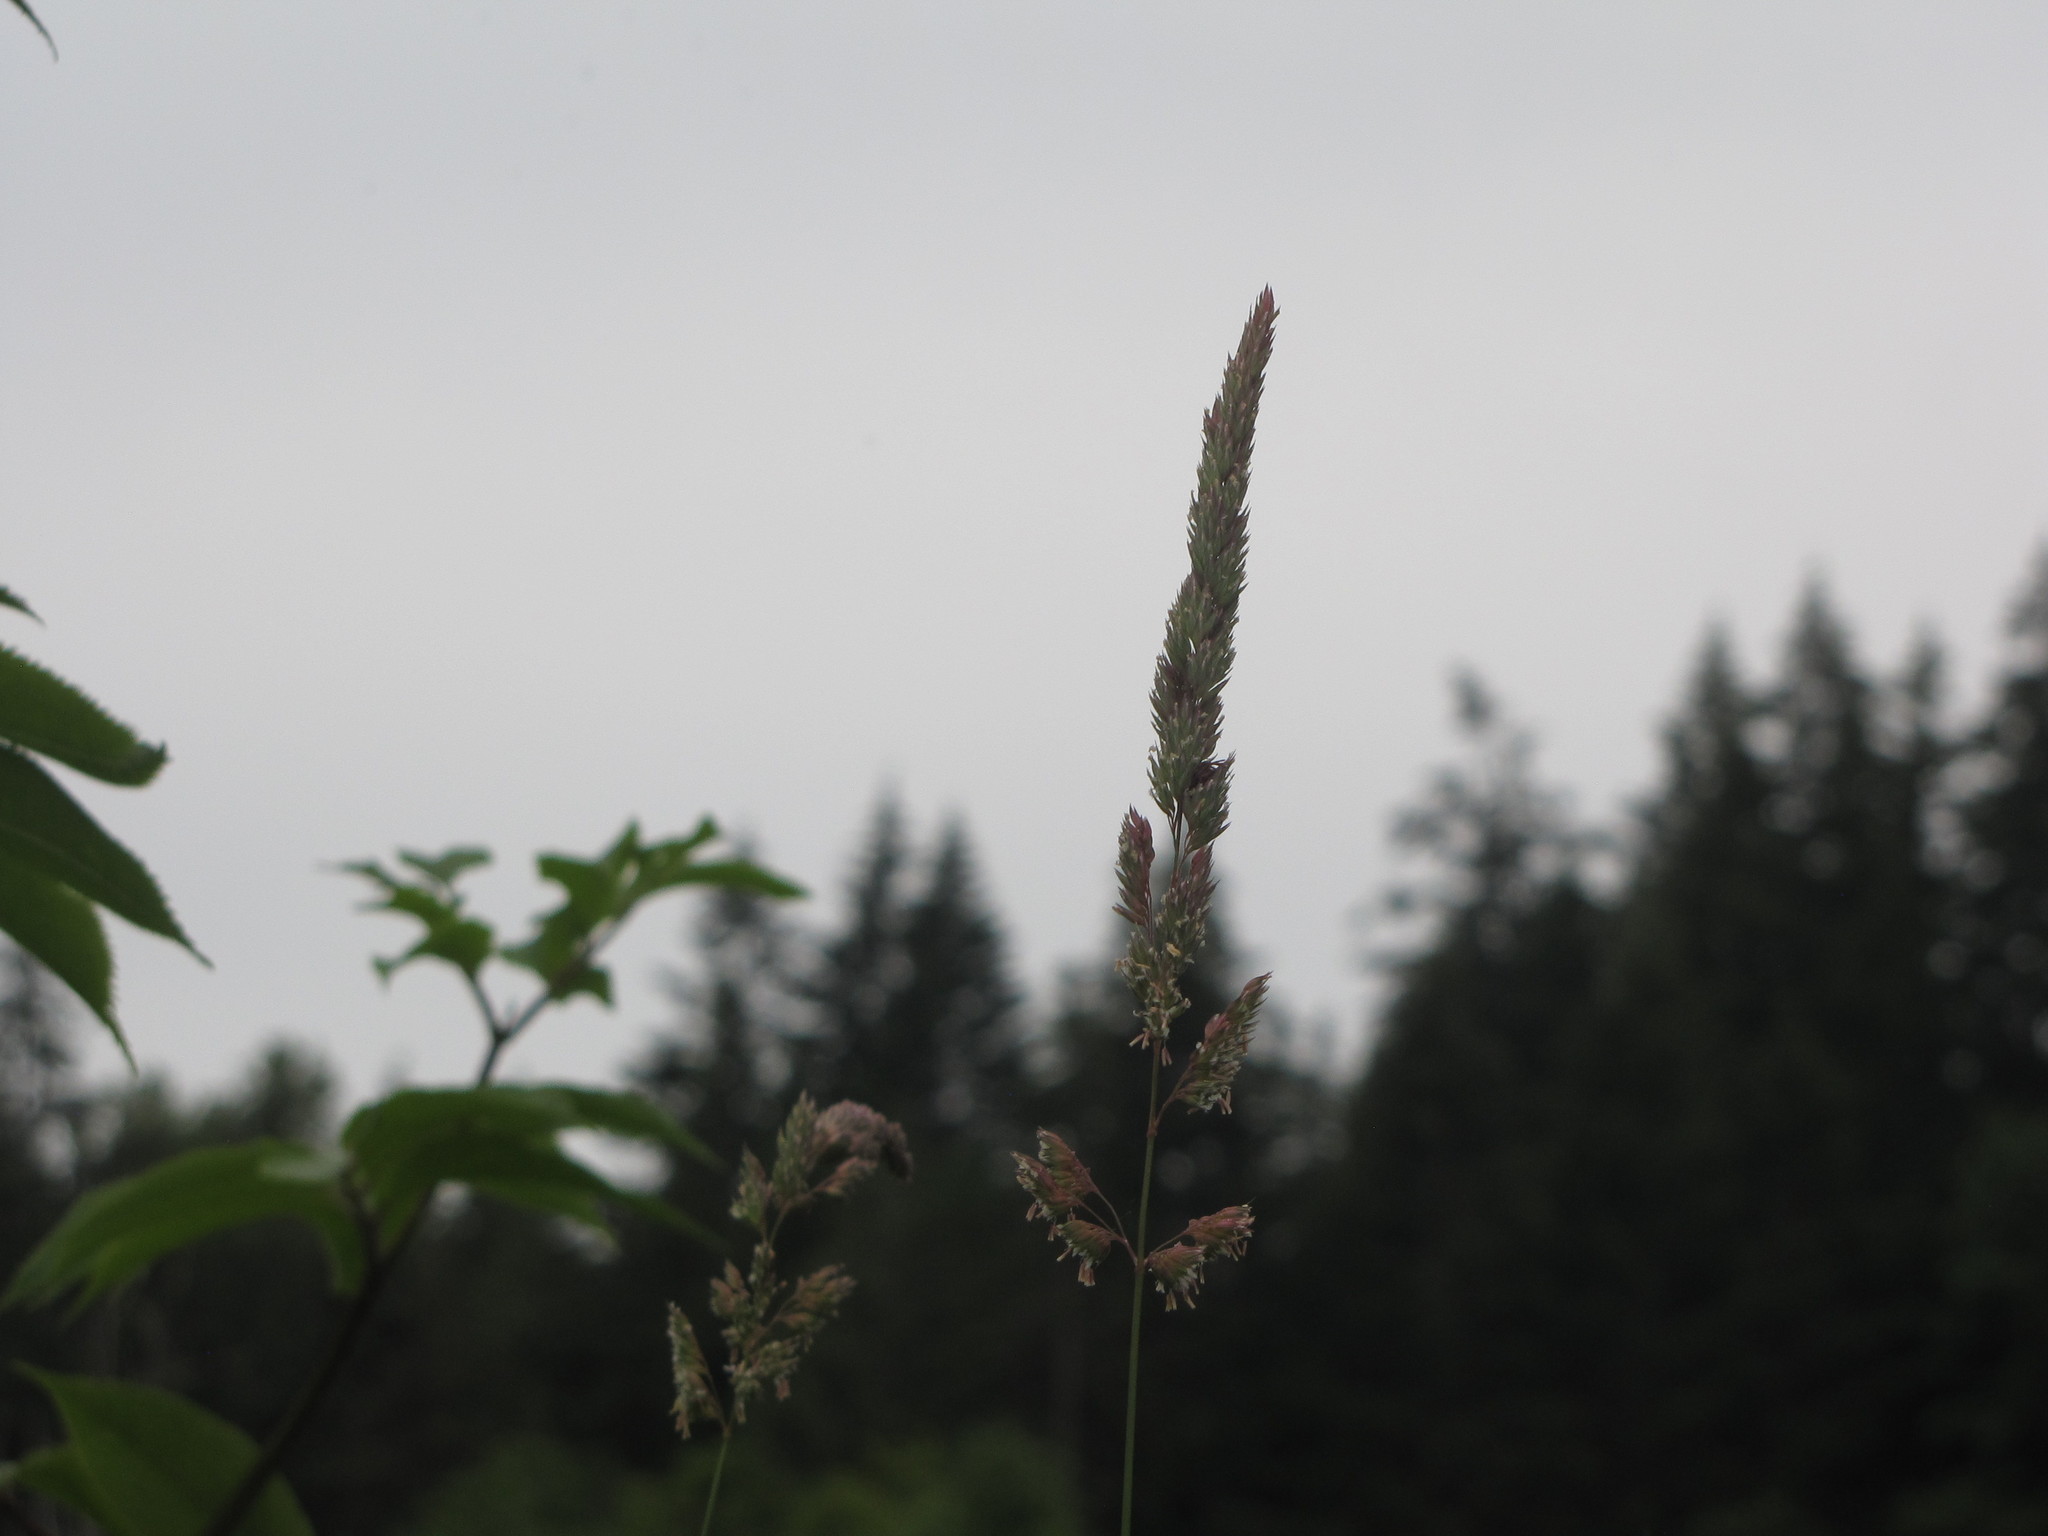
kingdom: Plantae
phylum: Tracheophyta
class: Liliopsida
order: Poales
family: Poaceae
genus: Phalaris
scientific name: Phalaris arundinacea
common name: Reed canary-grass
